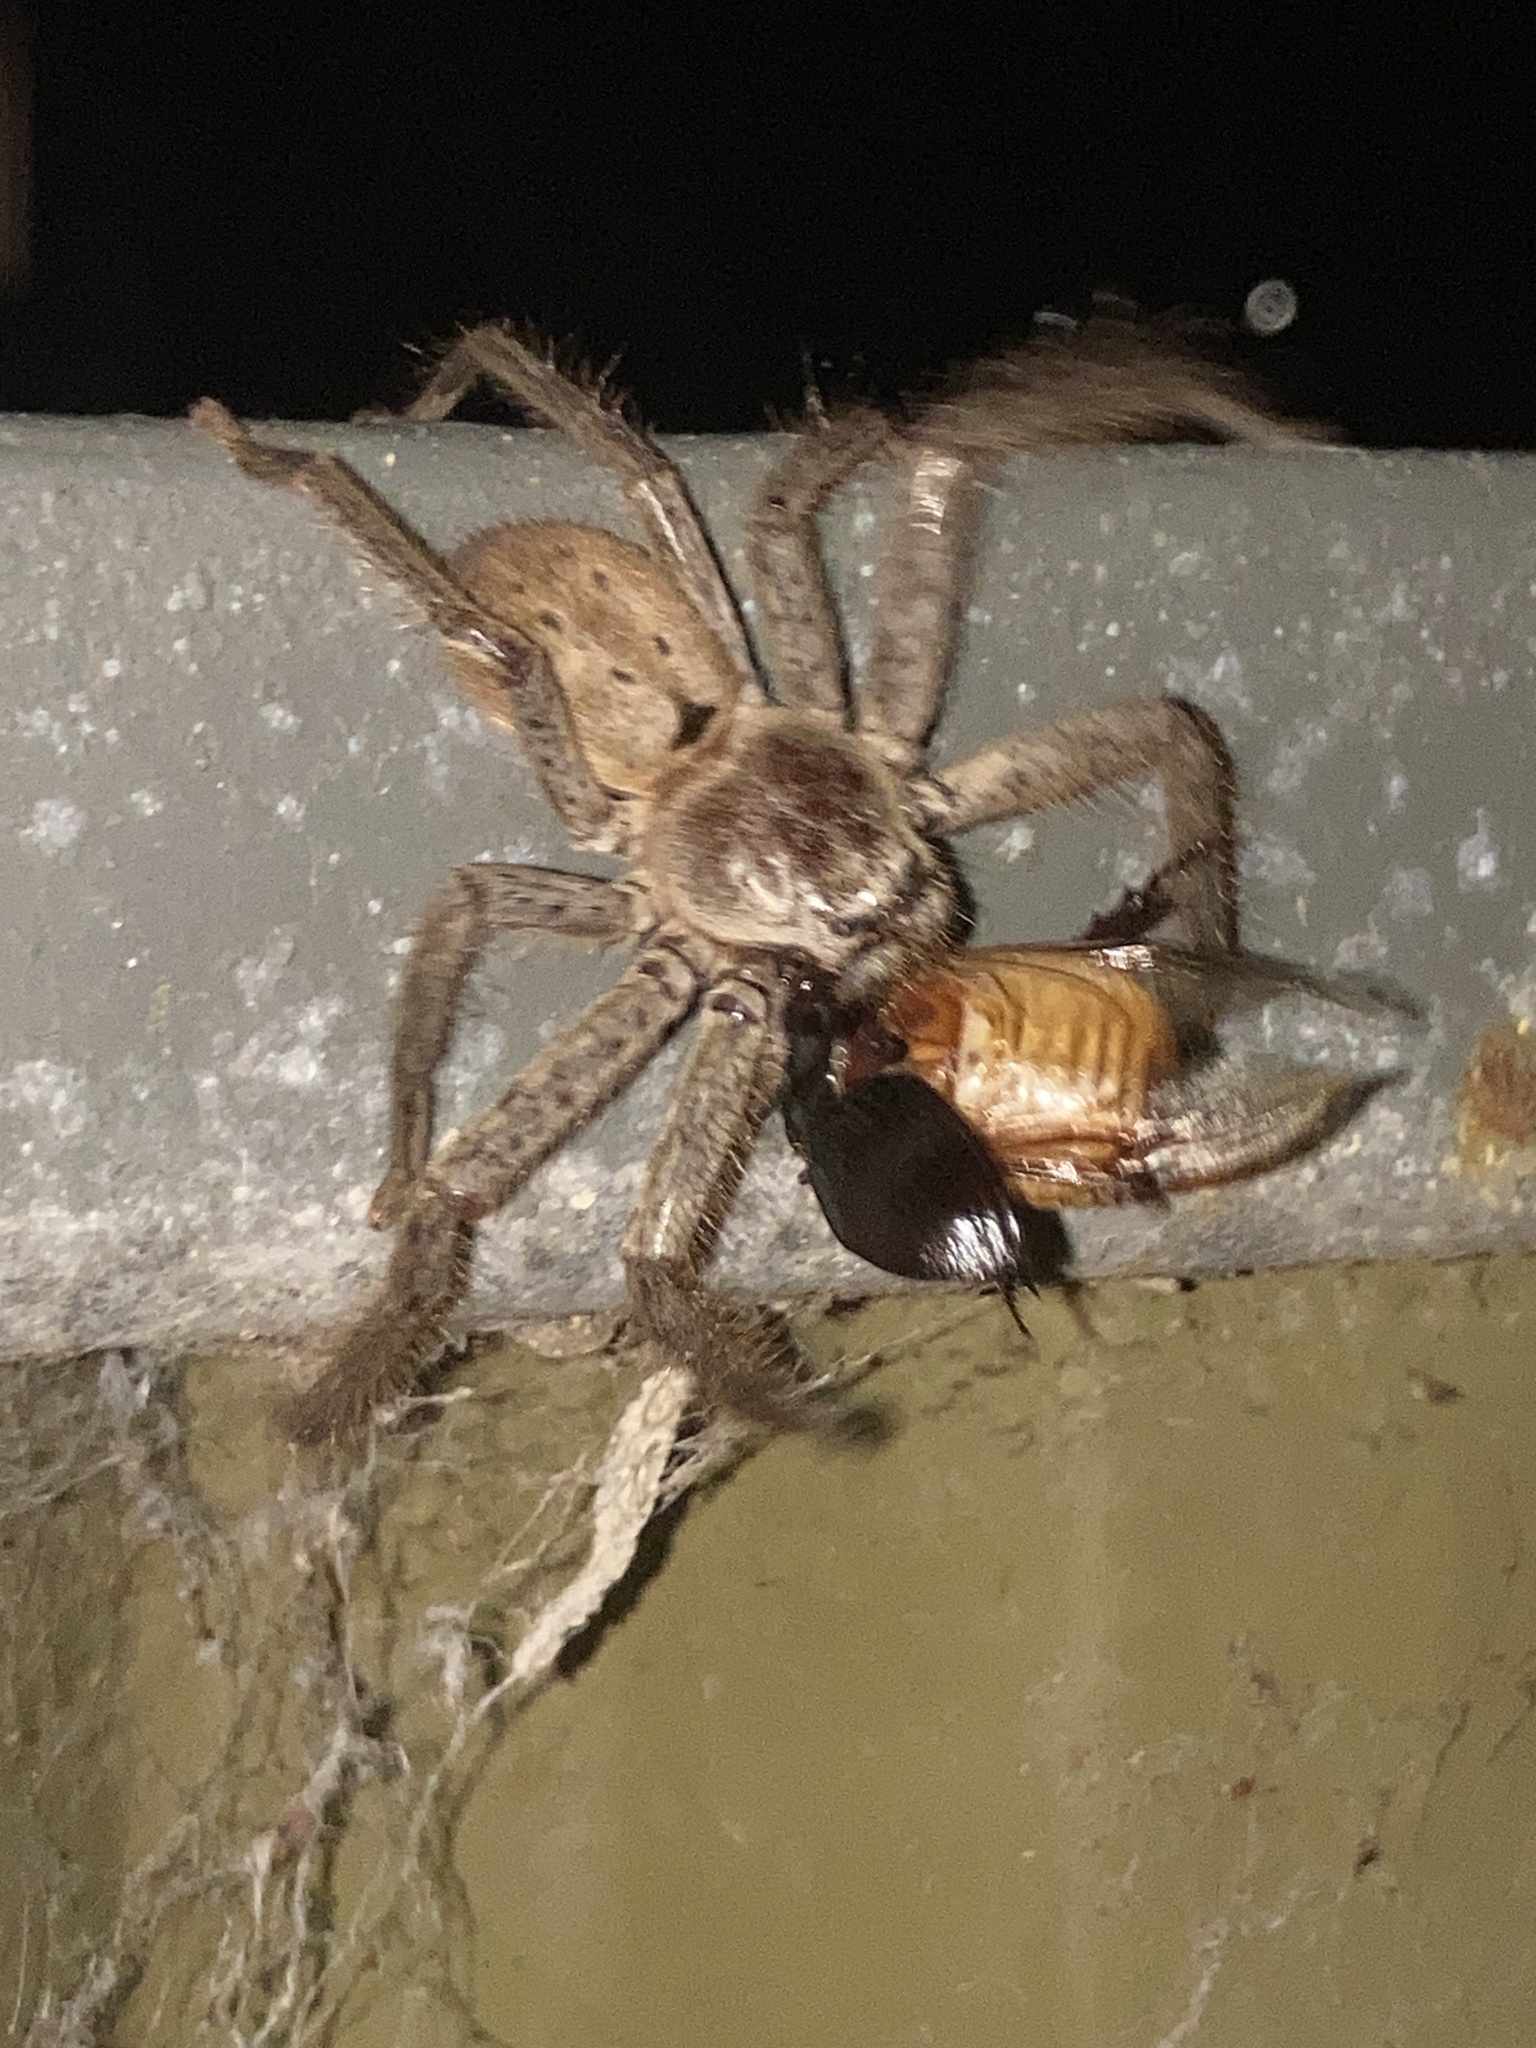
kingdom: Animalia
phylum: Arthropoda
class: Arachnida
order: Araneae
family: Sparassidae
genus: Isopeda
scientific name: Isopeda villosa
